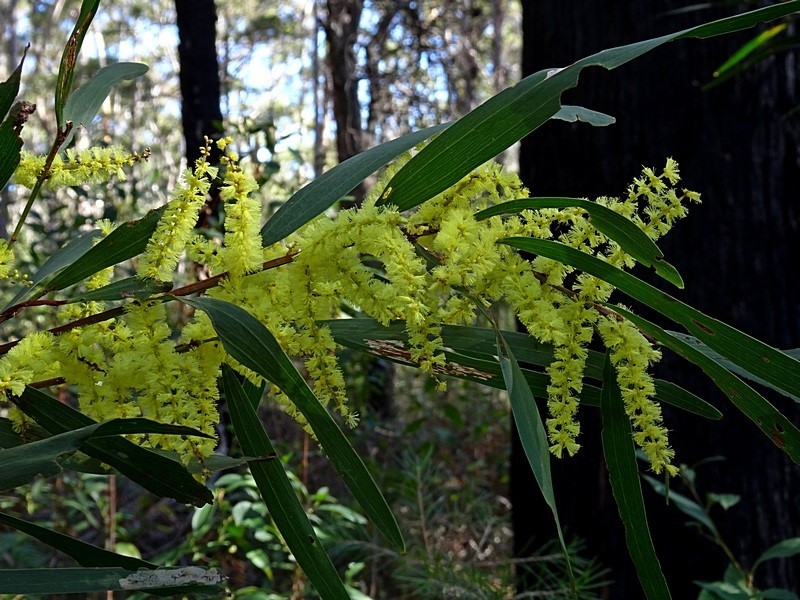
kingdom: Plantae
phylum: Tracheophyta
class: Magnoliopsida
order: Fabales
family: Fabaceae
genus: Acacia
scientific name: Acacia longifolia
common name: Sydney golden wattle
